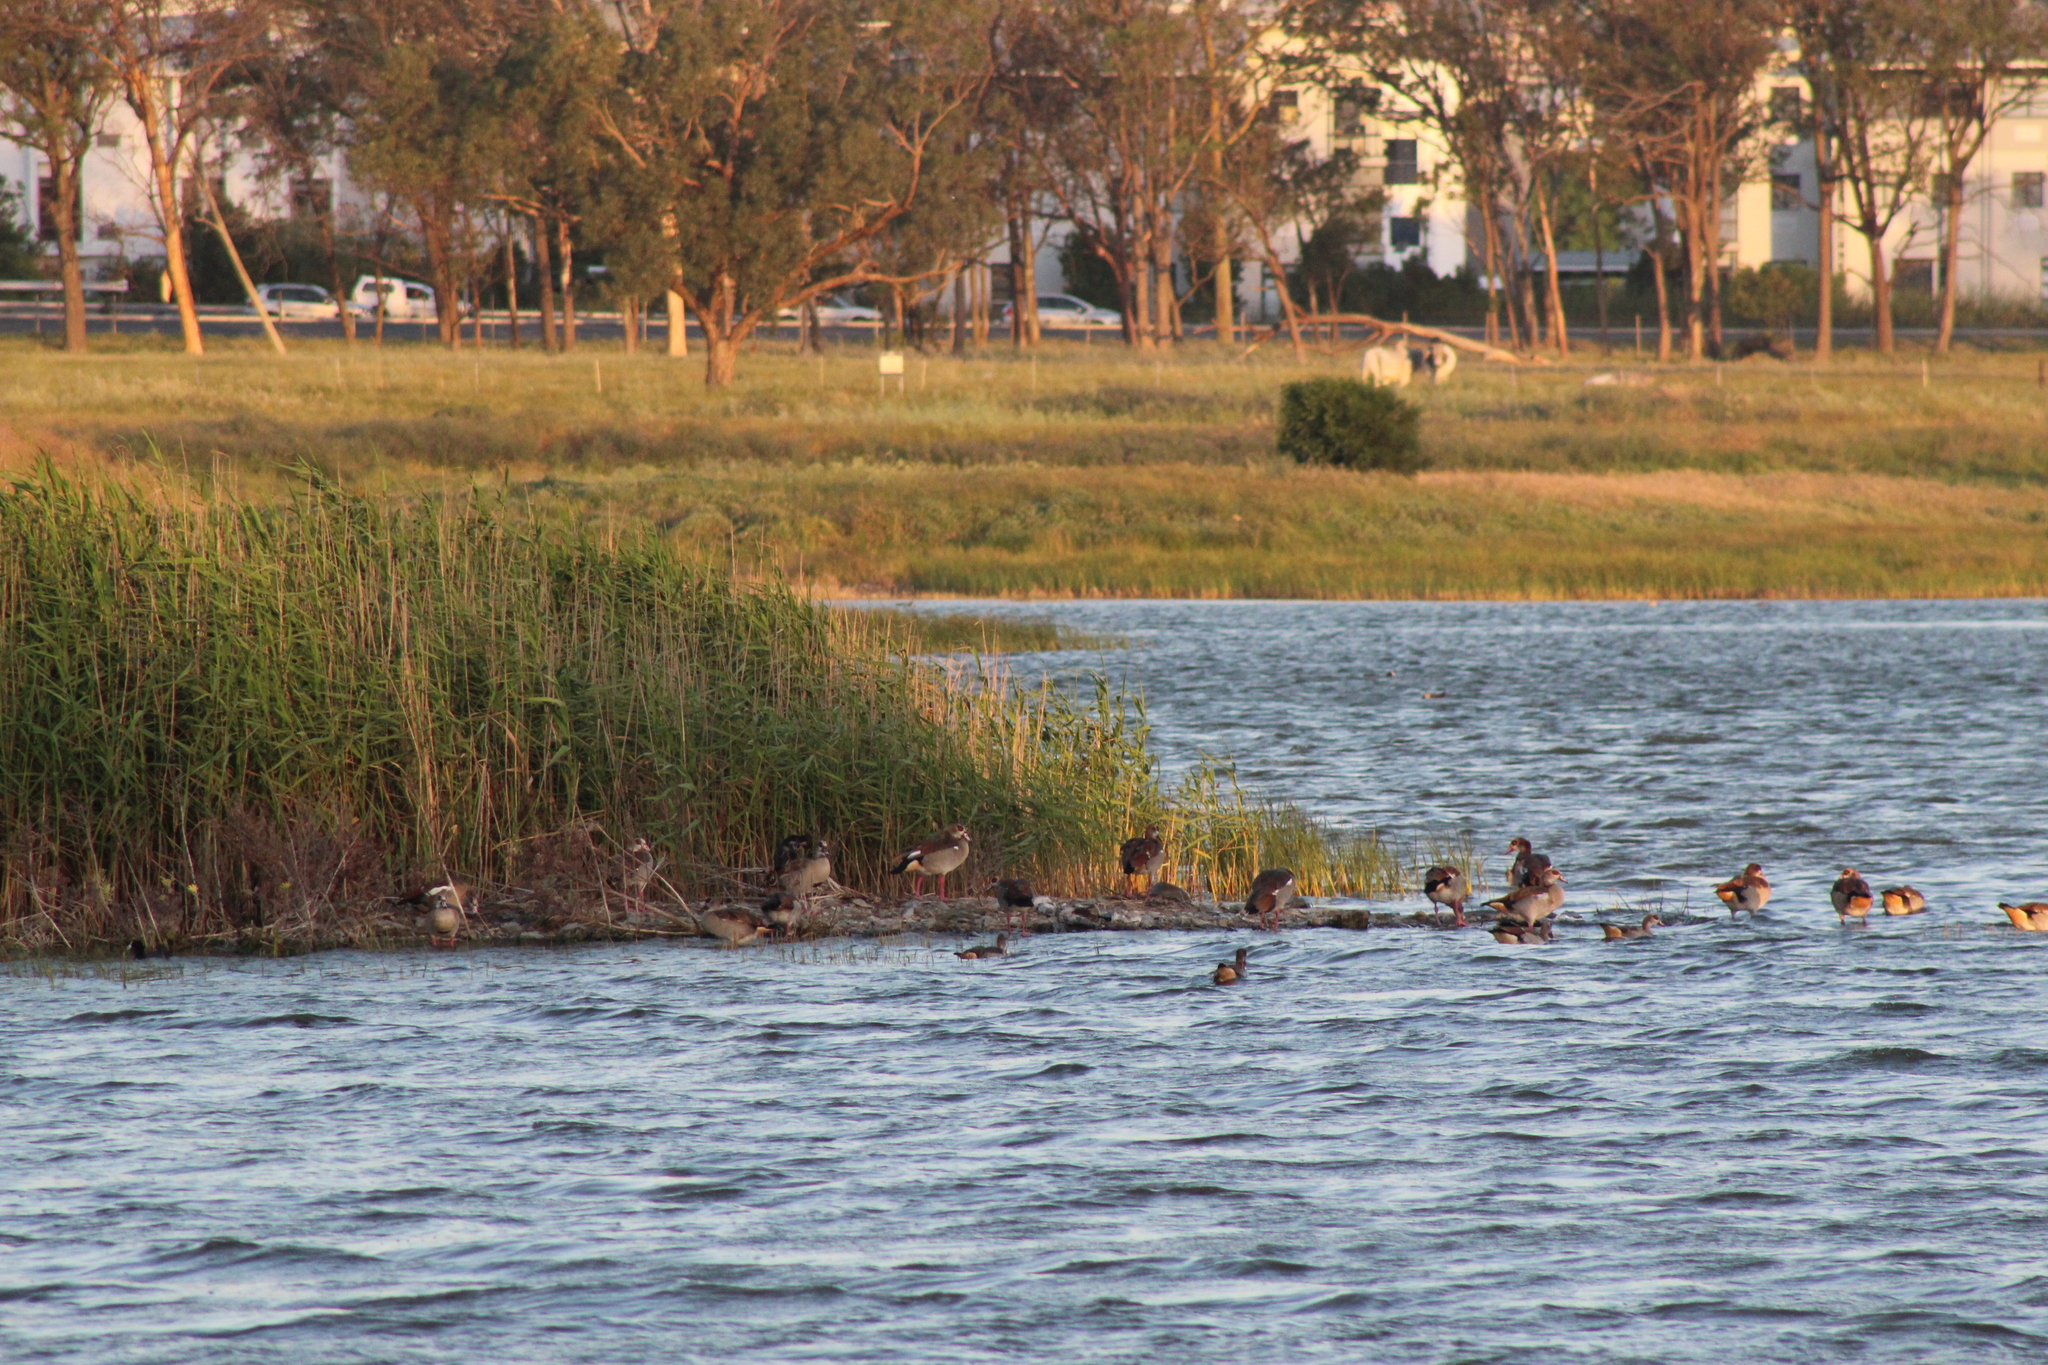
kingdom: Animalia
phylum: Chordata
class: Aves
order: Anseriformes
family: Anatidae
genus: Alopochen
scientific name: Alopochen aegyptiaca
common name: Egyptian goose
